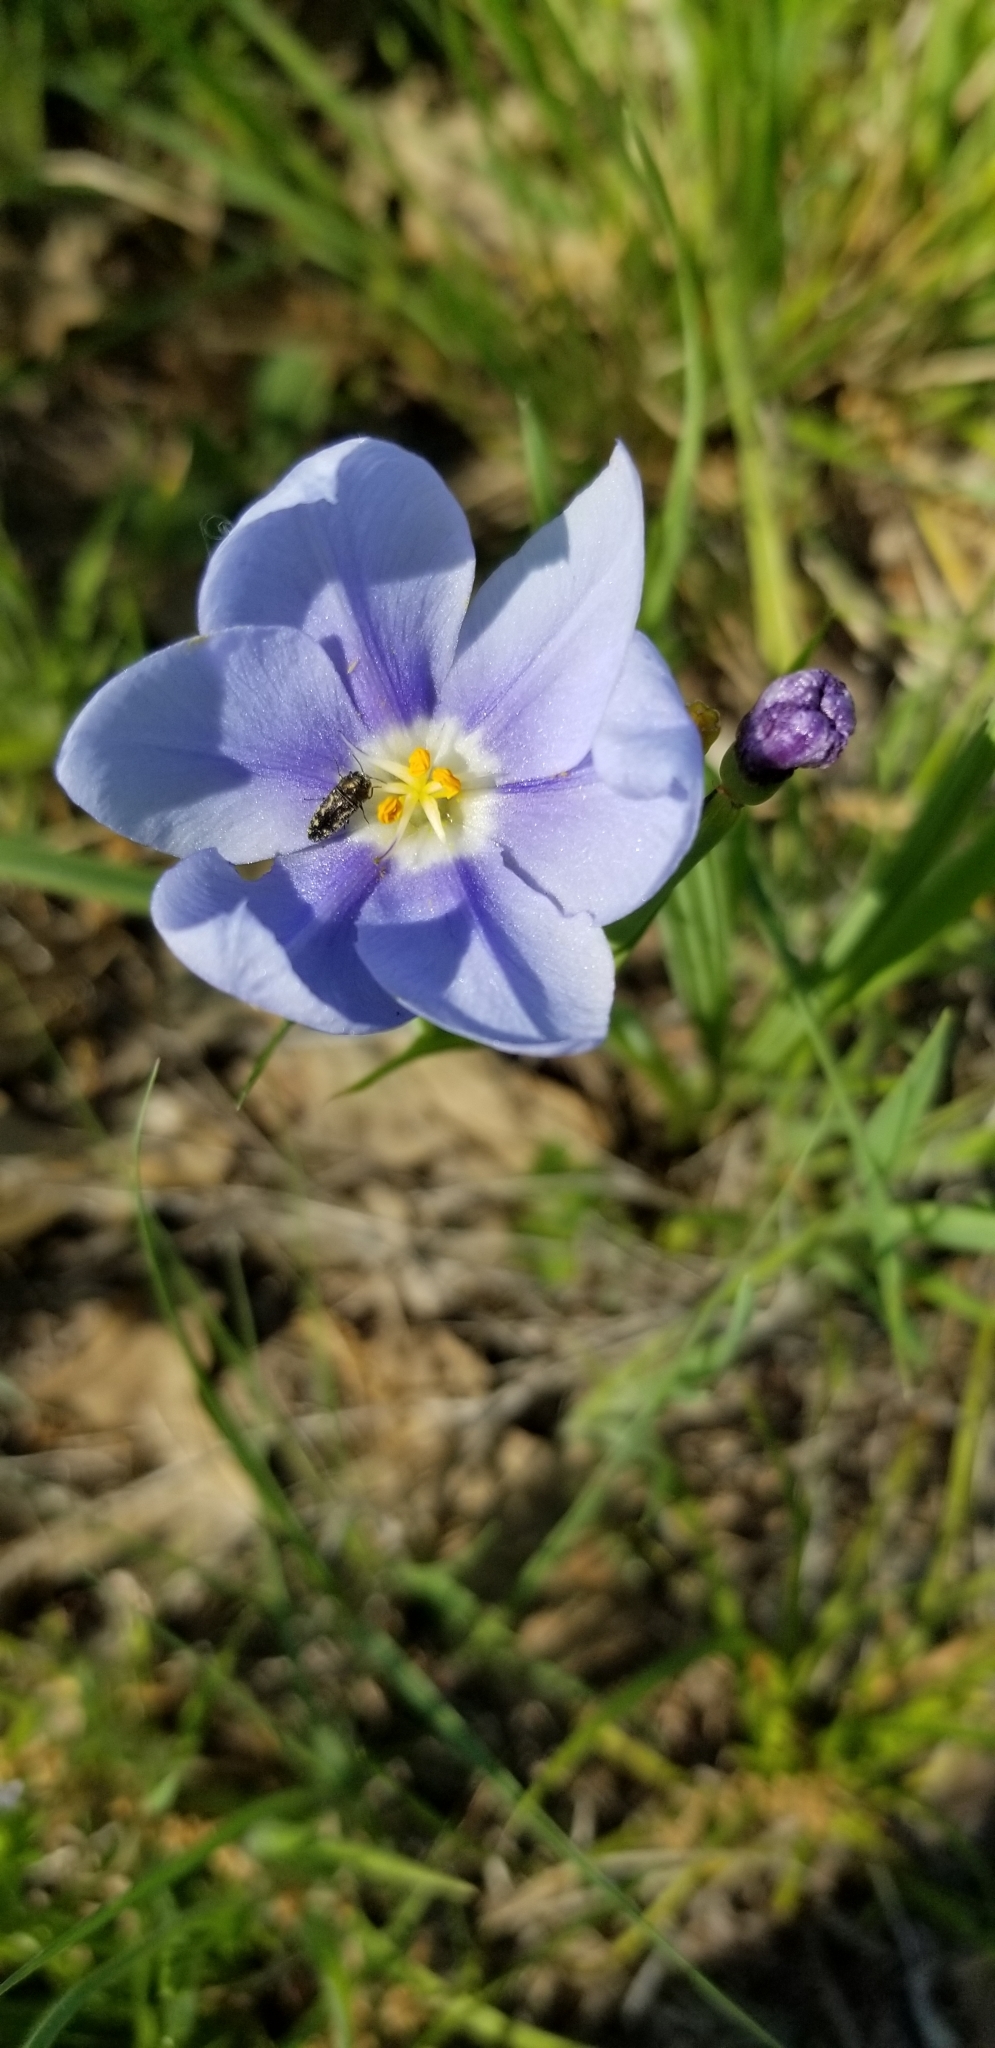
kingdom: Plantae
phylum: Tracheophyta
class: Liliopsida
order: Asparagales
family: Iridaceae
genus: Nemastylis
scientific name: Nemastylis geminiflora
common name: Prairie celestial
